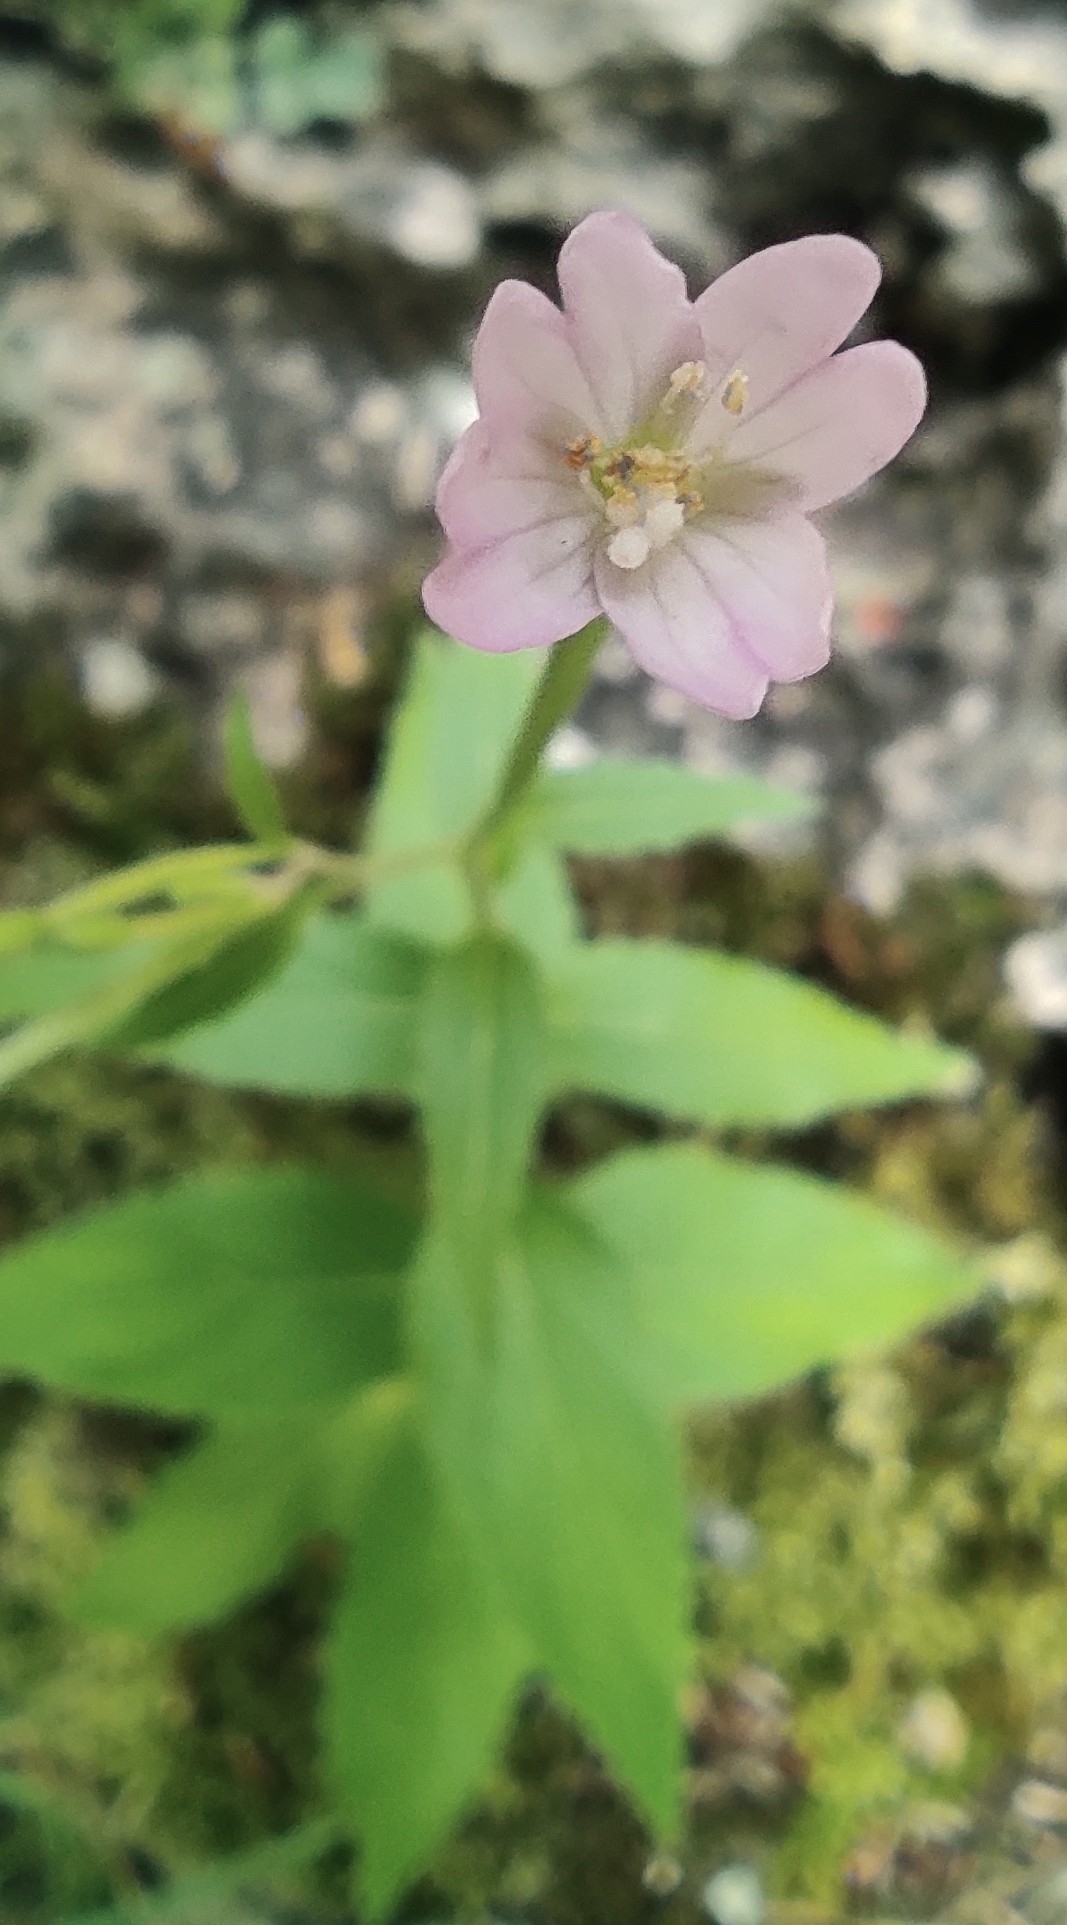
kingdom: Plantae
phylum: Tracheophyta
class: Magnoliopsida
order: Myrtales
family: Onagraceae
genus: Epilobium
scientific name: Epilobium montanum
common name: Broad-leaved willowherb
